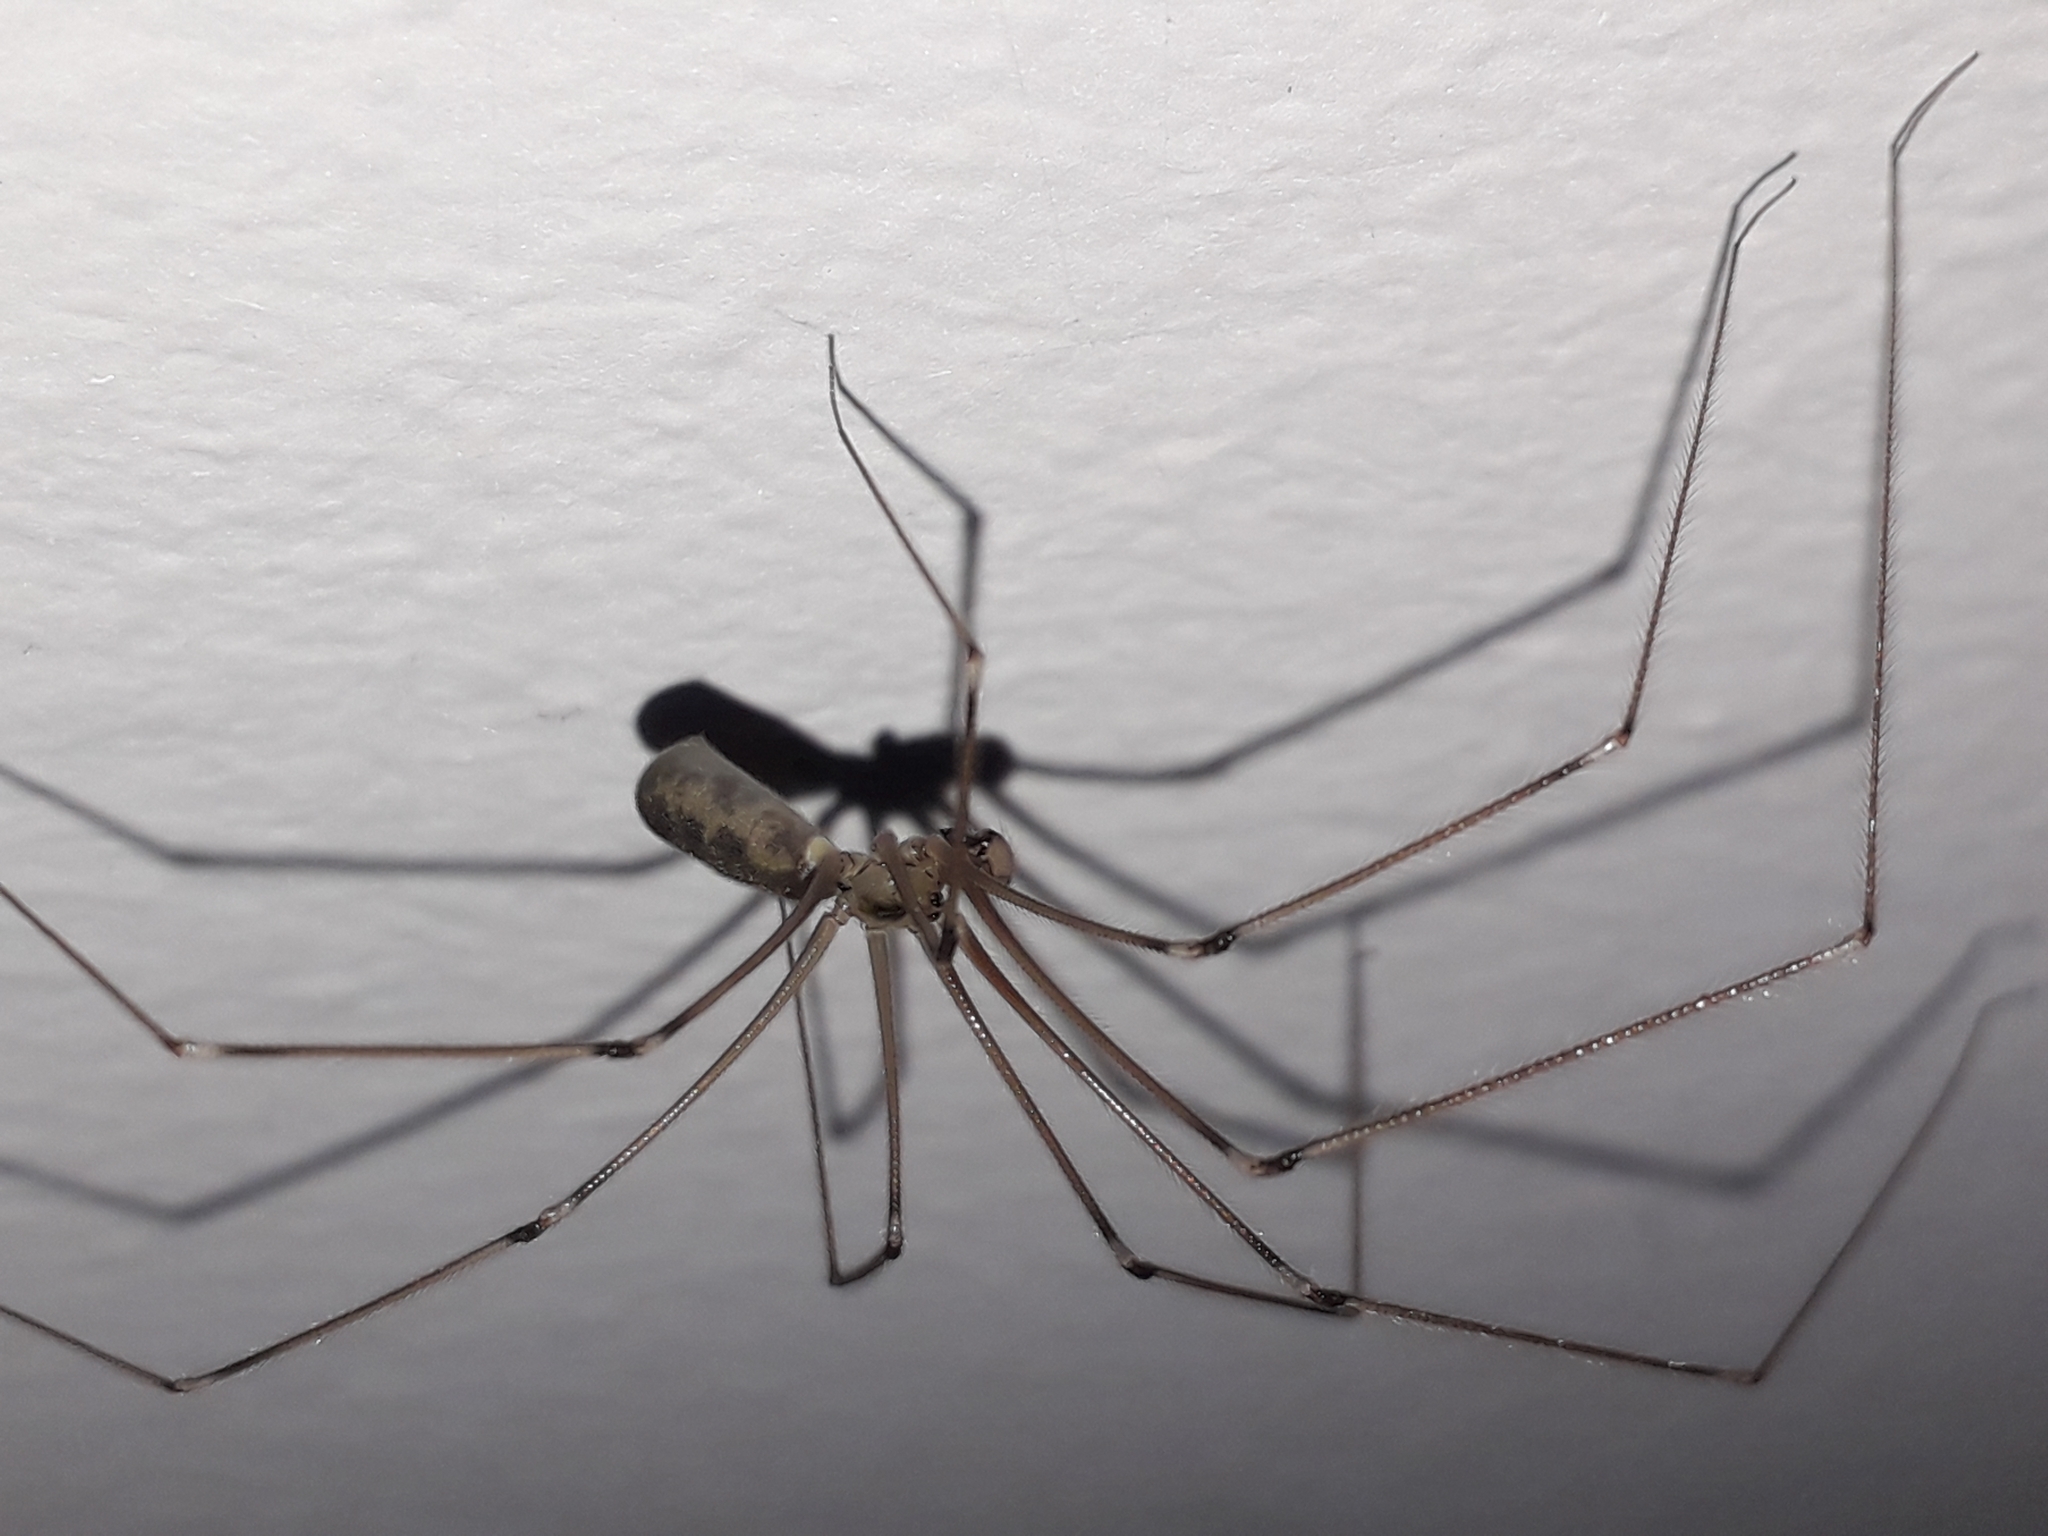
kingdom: Animalia
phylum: Arthropoda
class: Arachnida
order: Araneae
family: Pholcidae
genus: Pholcus
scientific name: Pholcus phalangioides
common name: Longbodied cellar spider
